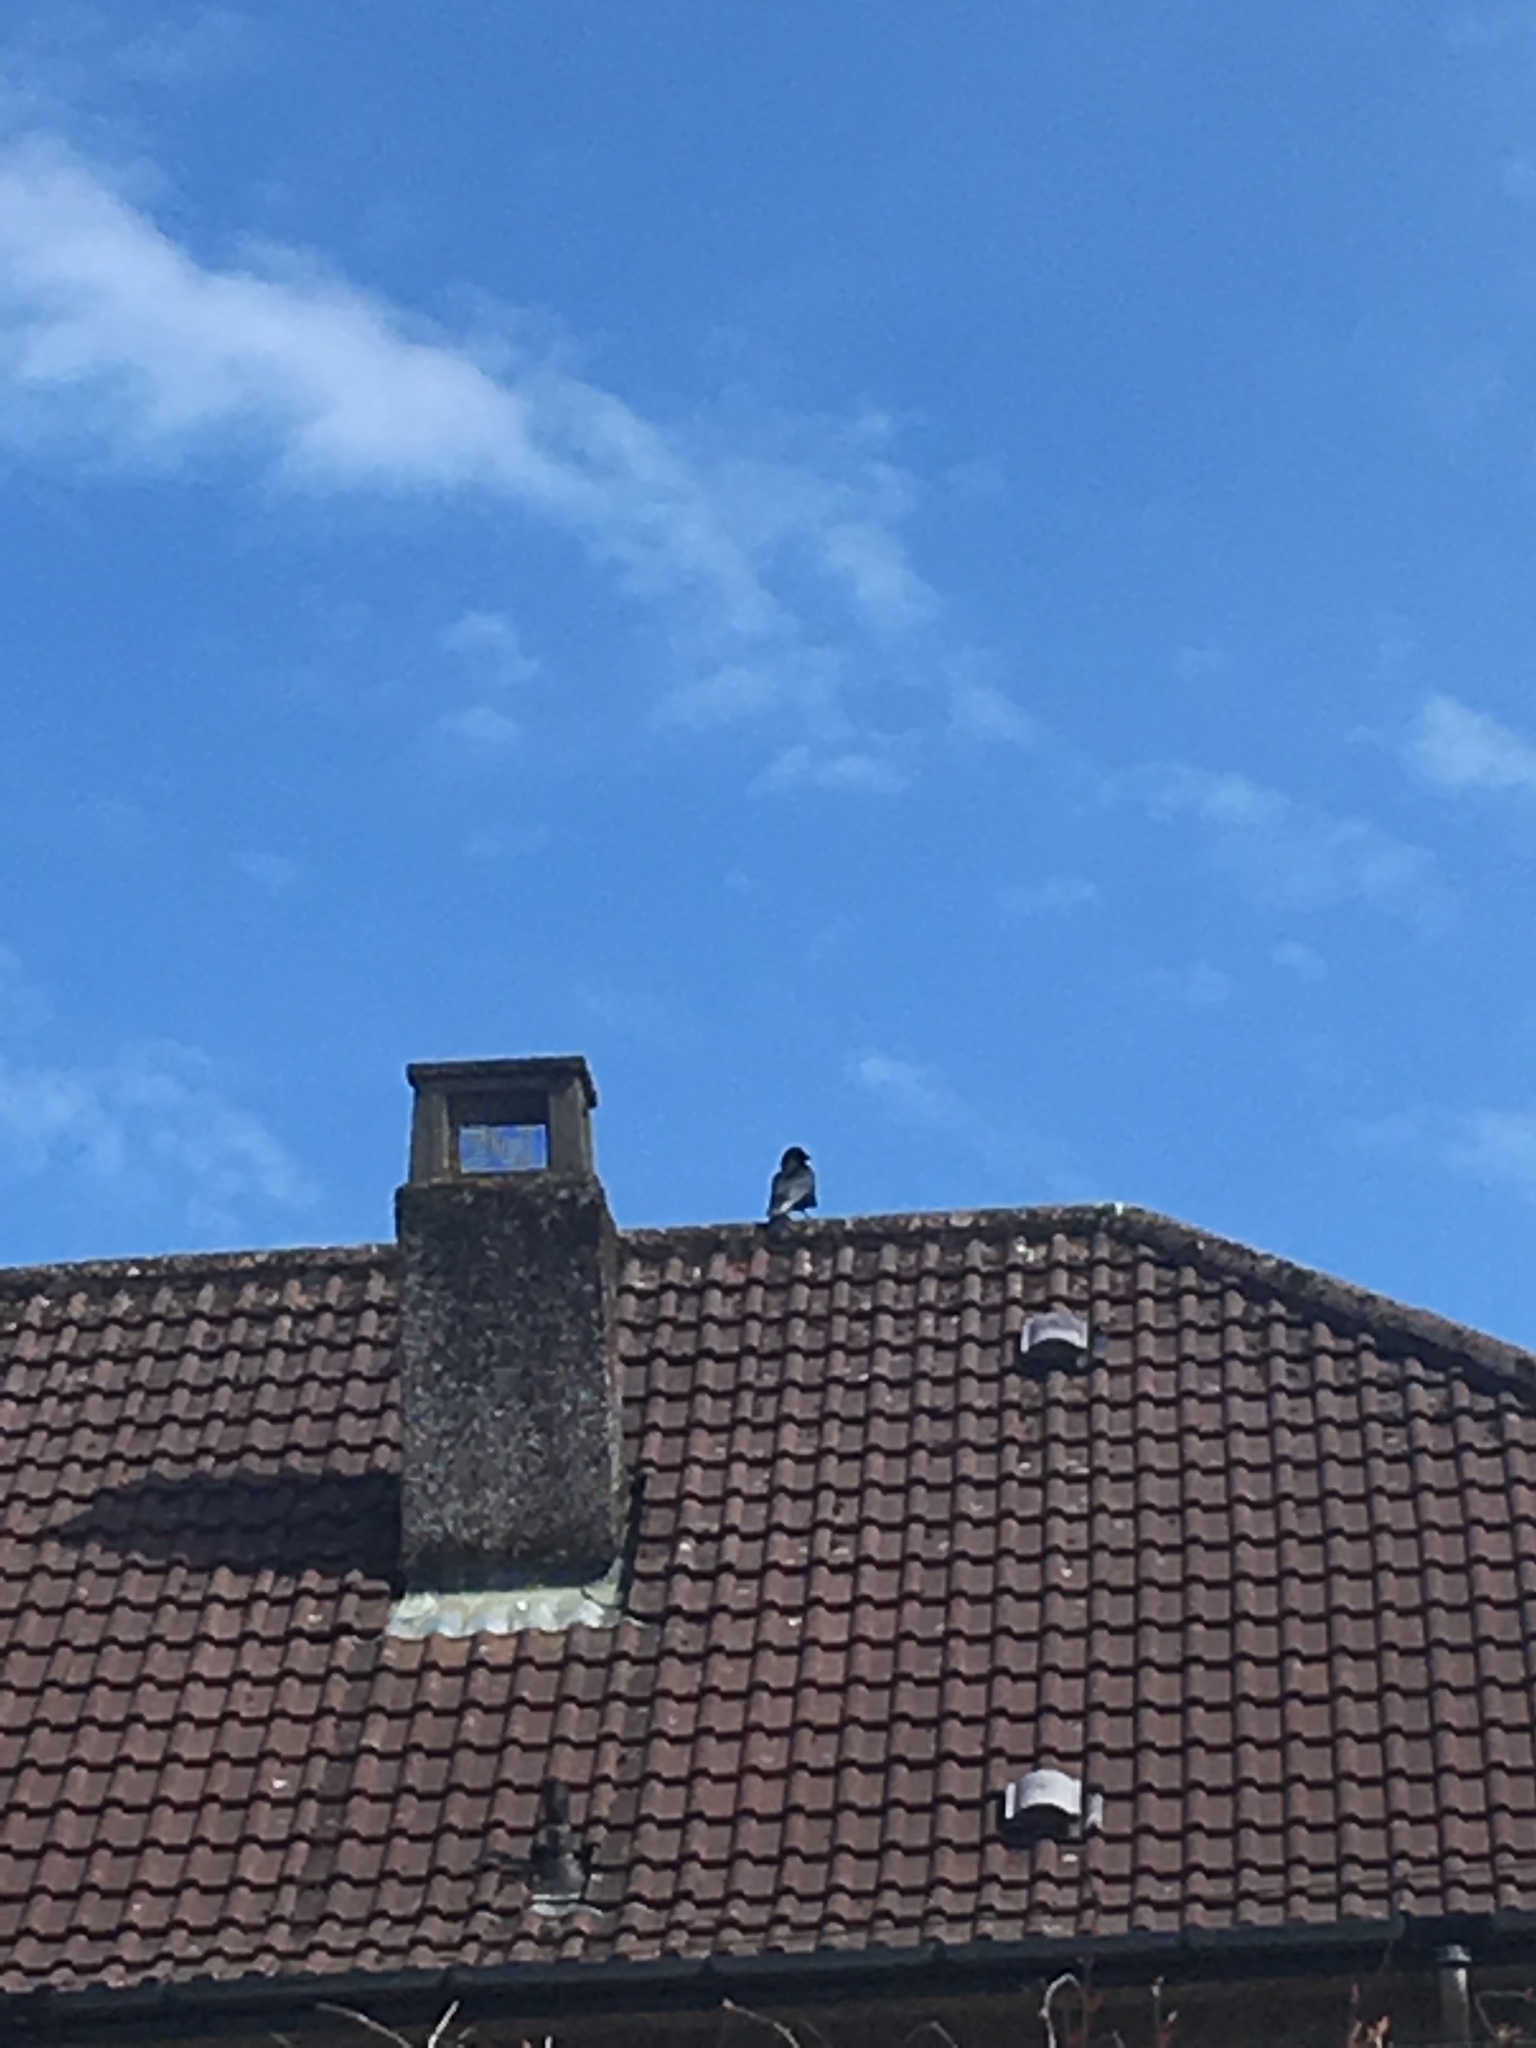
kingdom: Animalia
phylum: Chordata
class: Aves
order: Passeriformes
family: Corvidae
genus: Corvus
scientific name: Corvus corone
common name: Carrion crow
